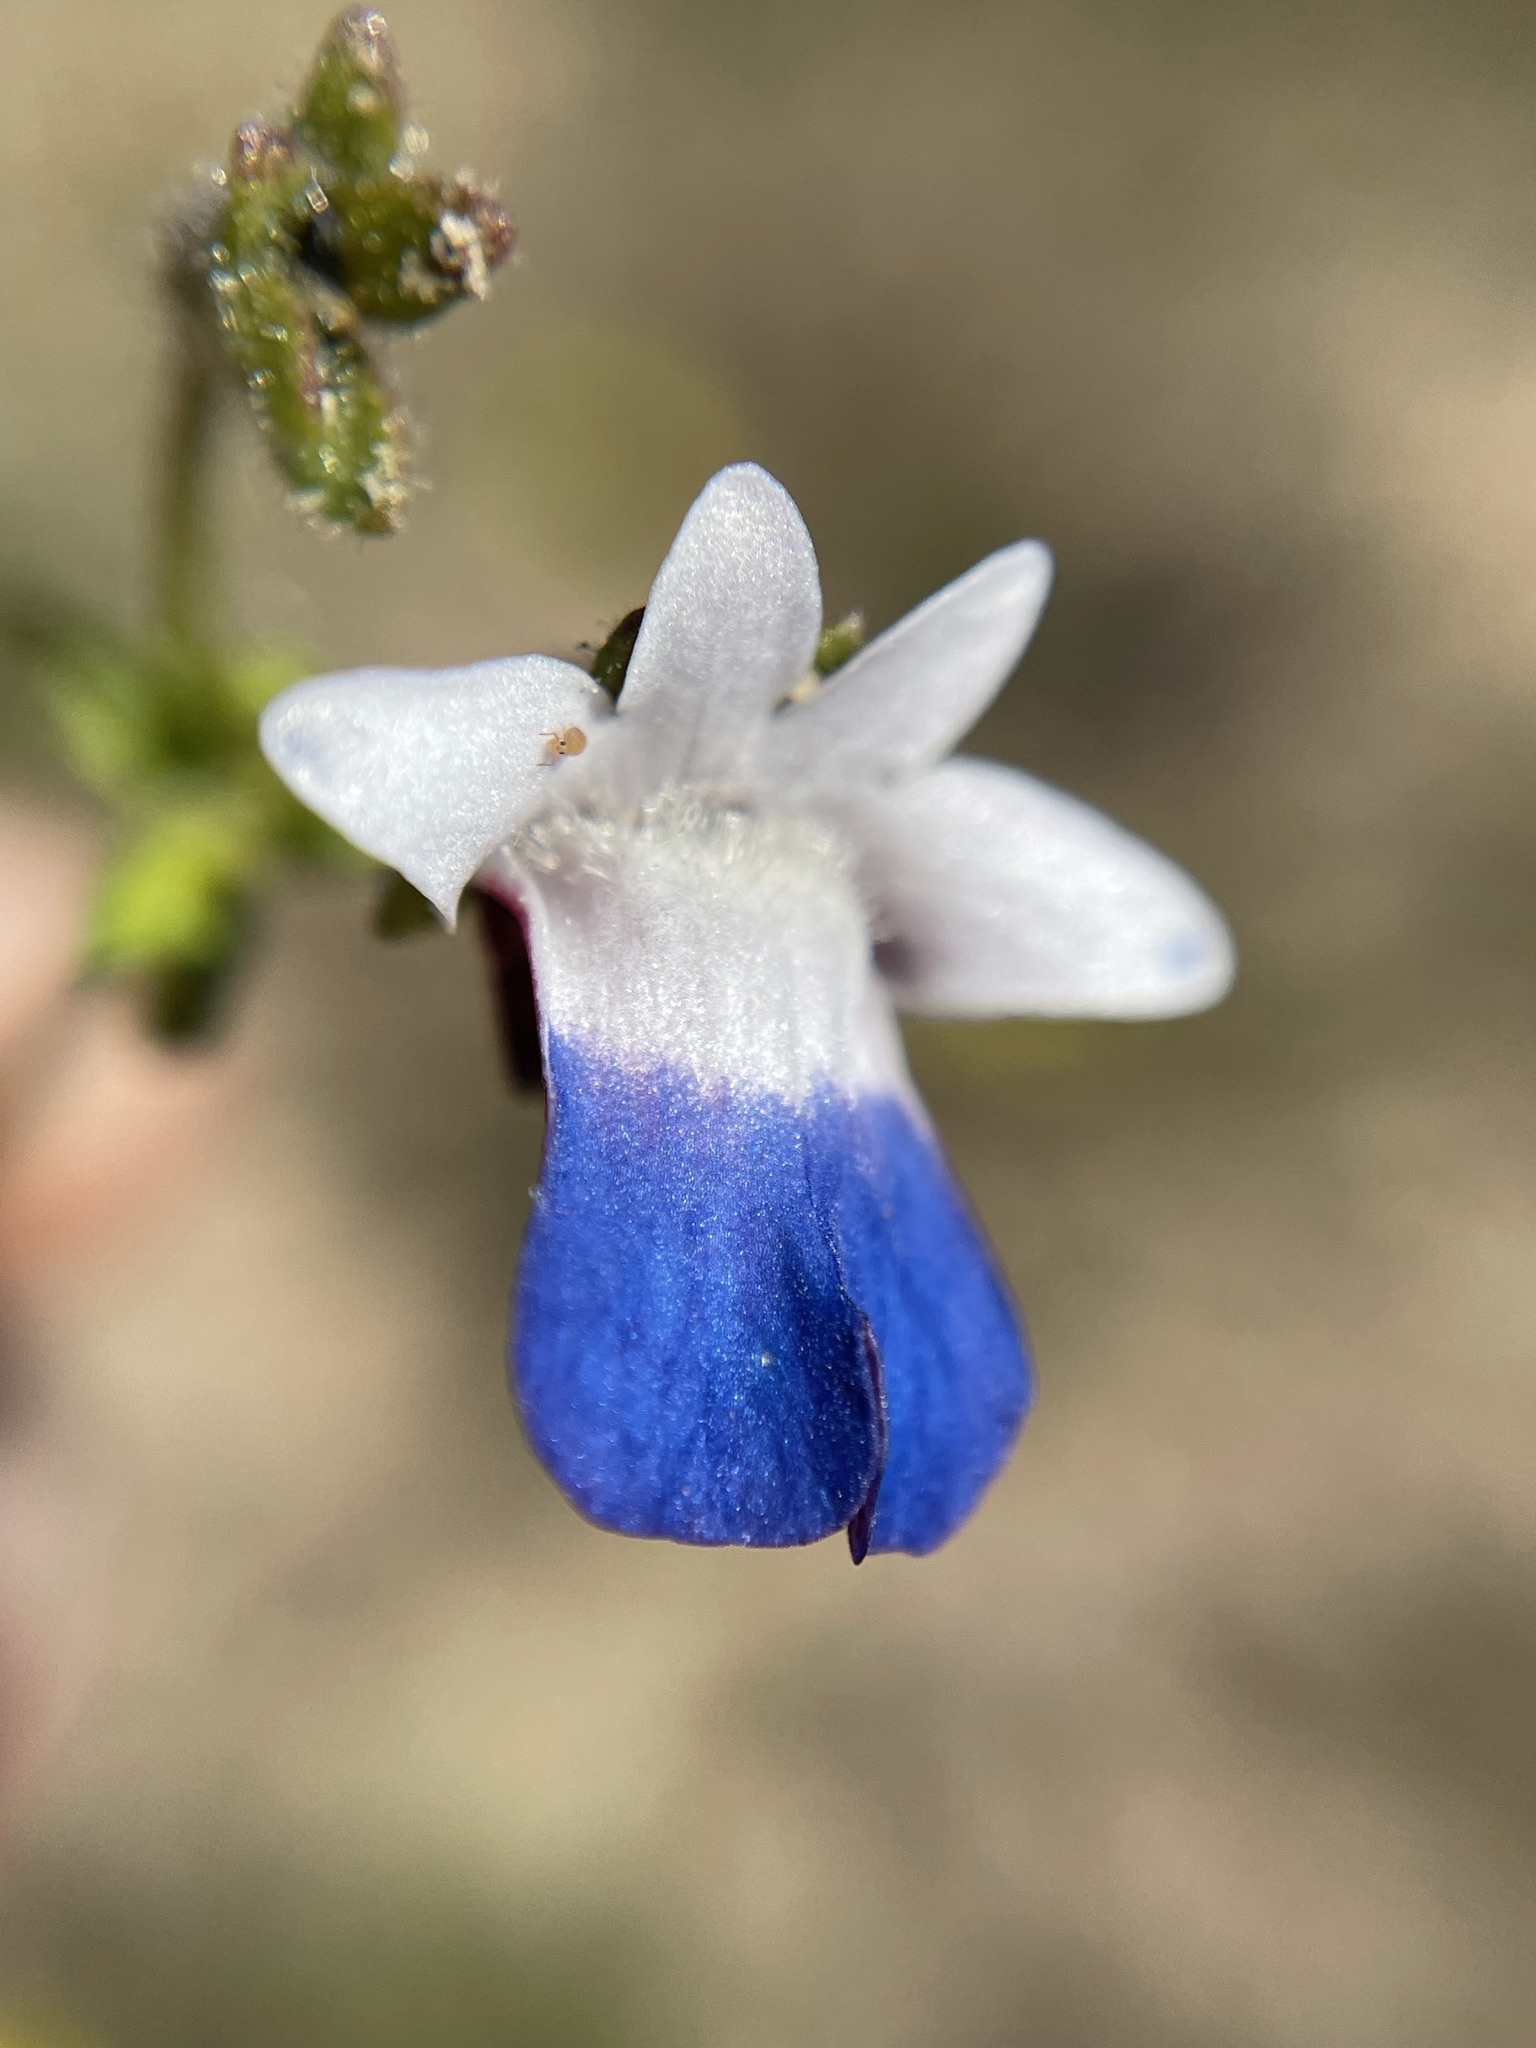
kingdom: Plantae
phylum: Tracheophyta
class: Magnoliopsida
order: Lamiales
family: Scrophulariaceae
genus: Nemesia
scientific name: Nemesia barbata
